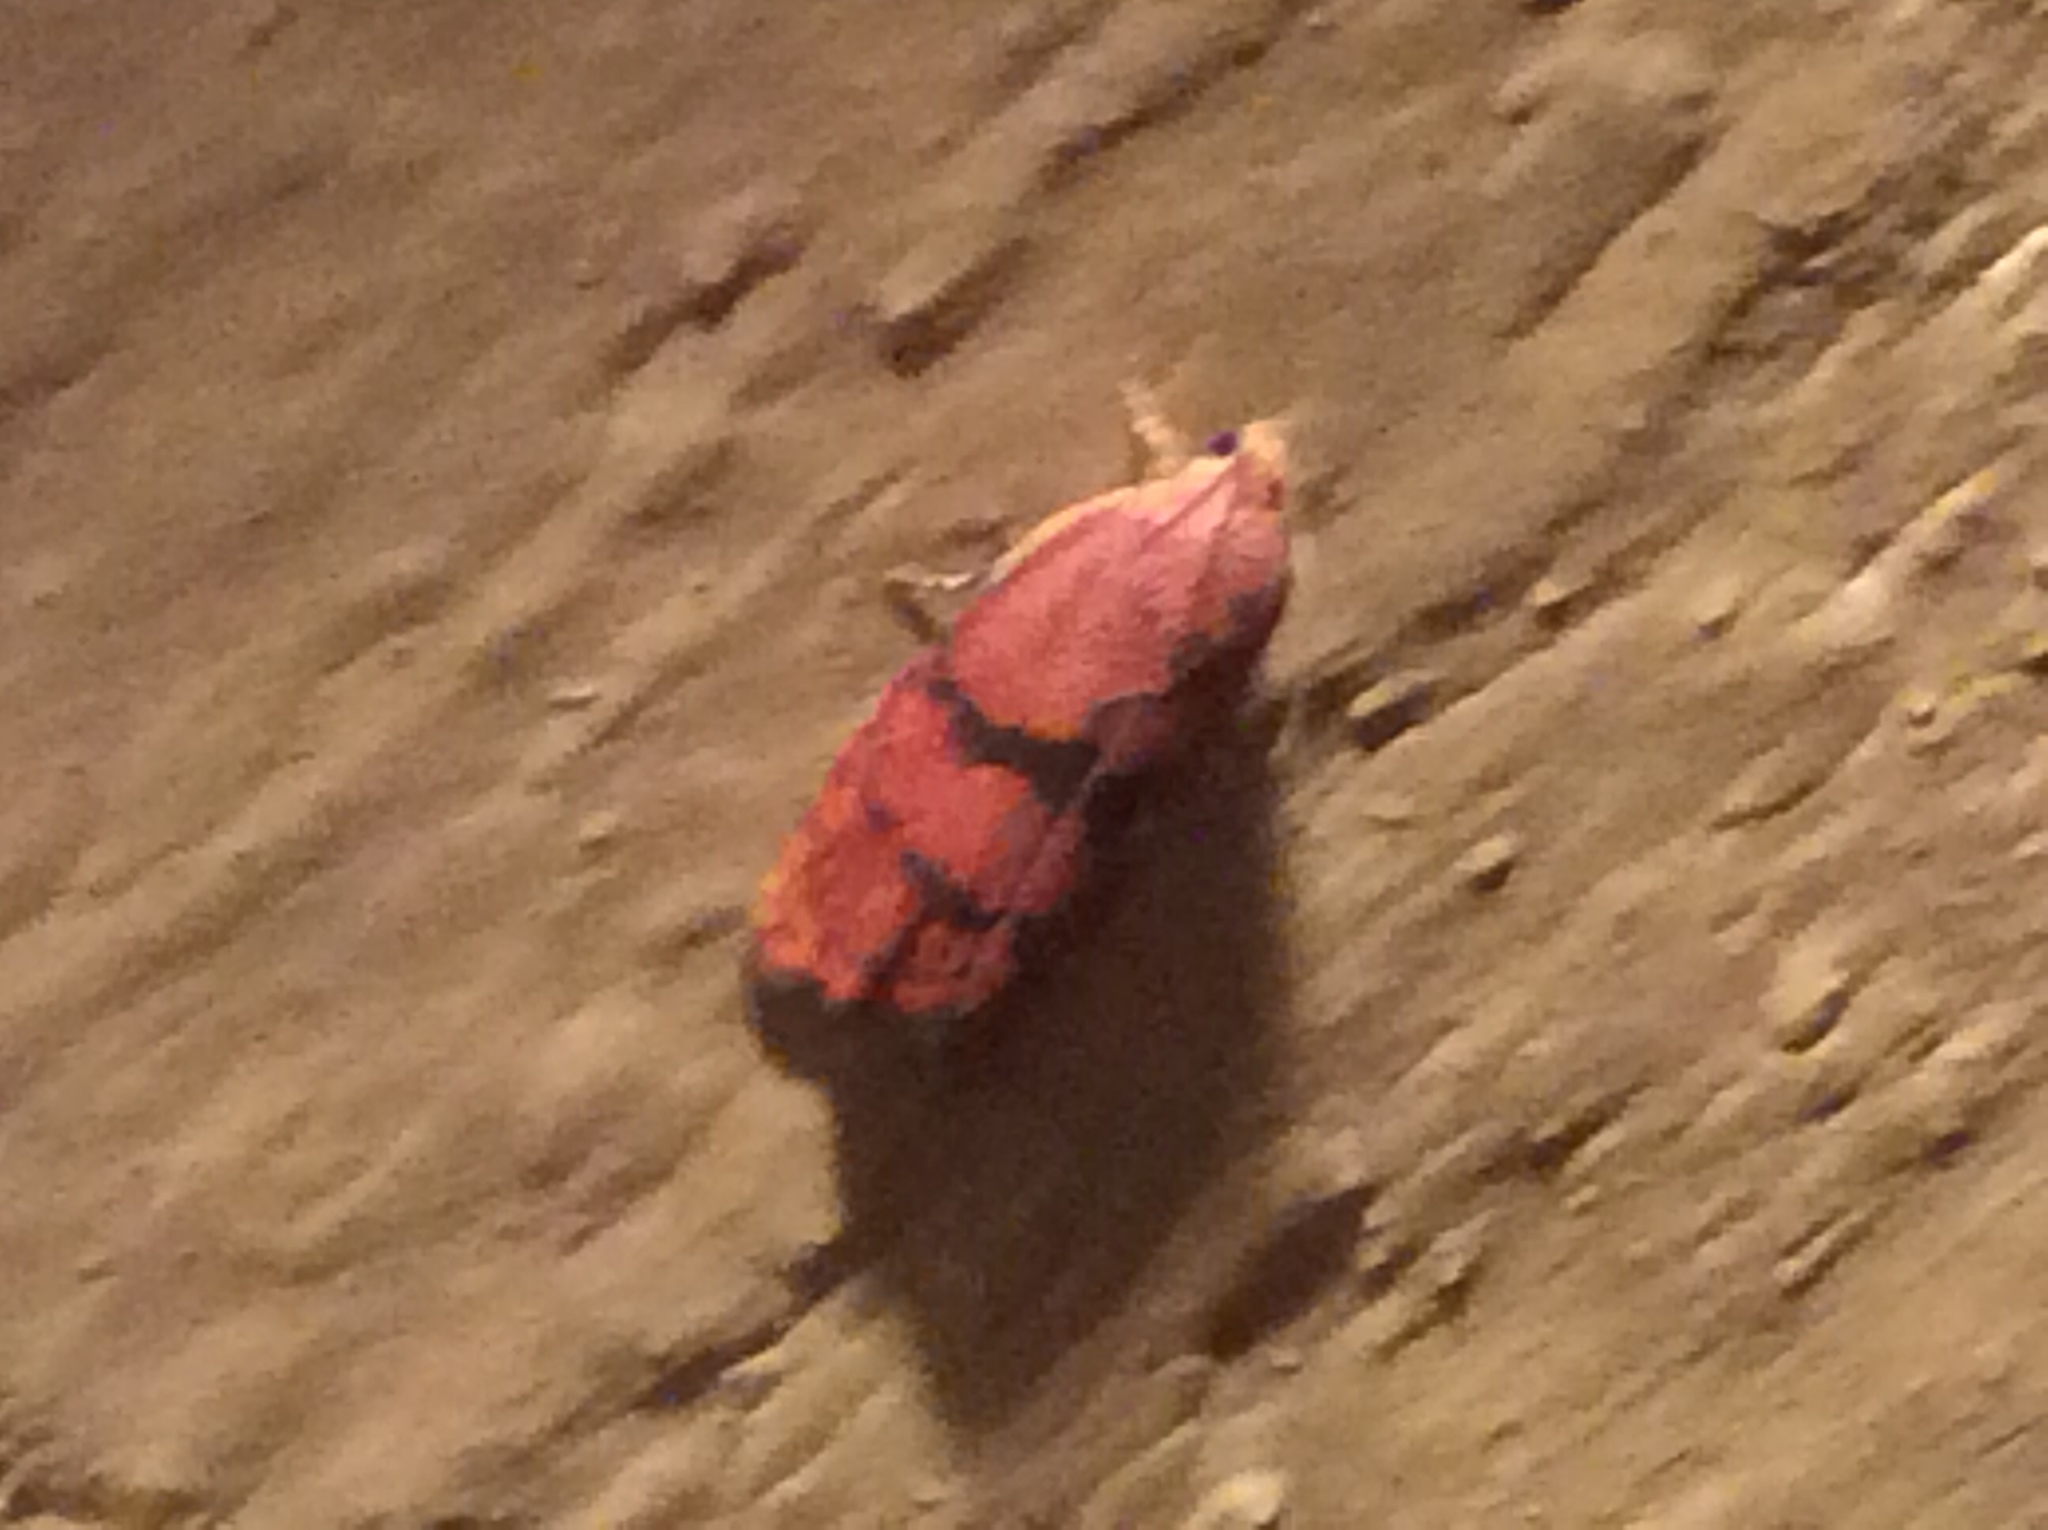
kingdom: Animalia
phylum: Arthropoda
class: Insecta
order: Lepidoptera
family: Tortricidae
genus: Cydia
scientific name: Cydia latiferreana
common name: Filbertworm moth
